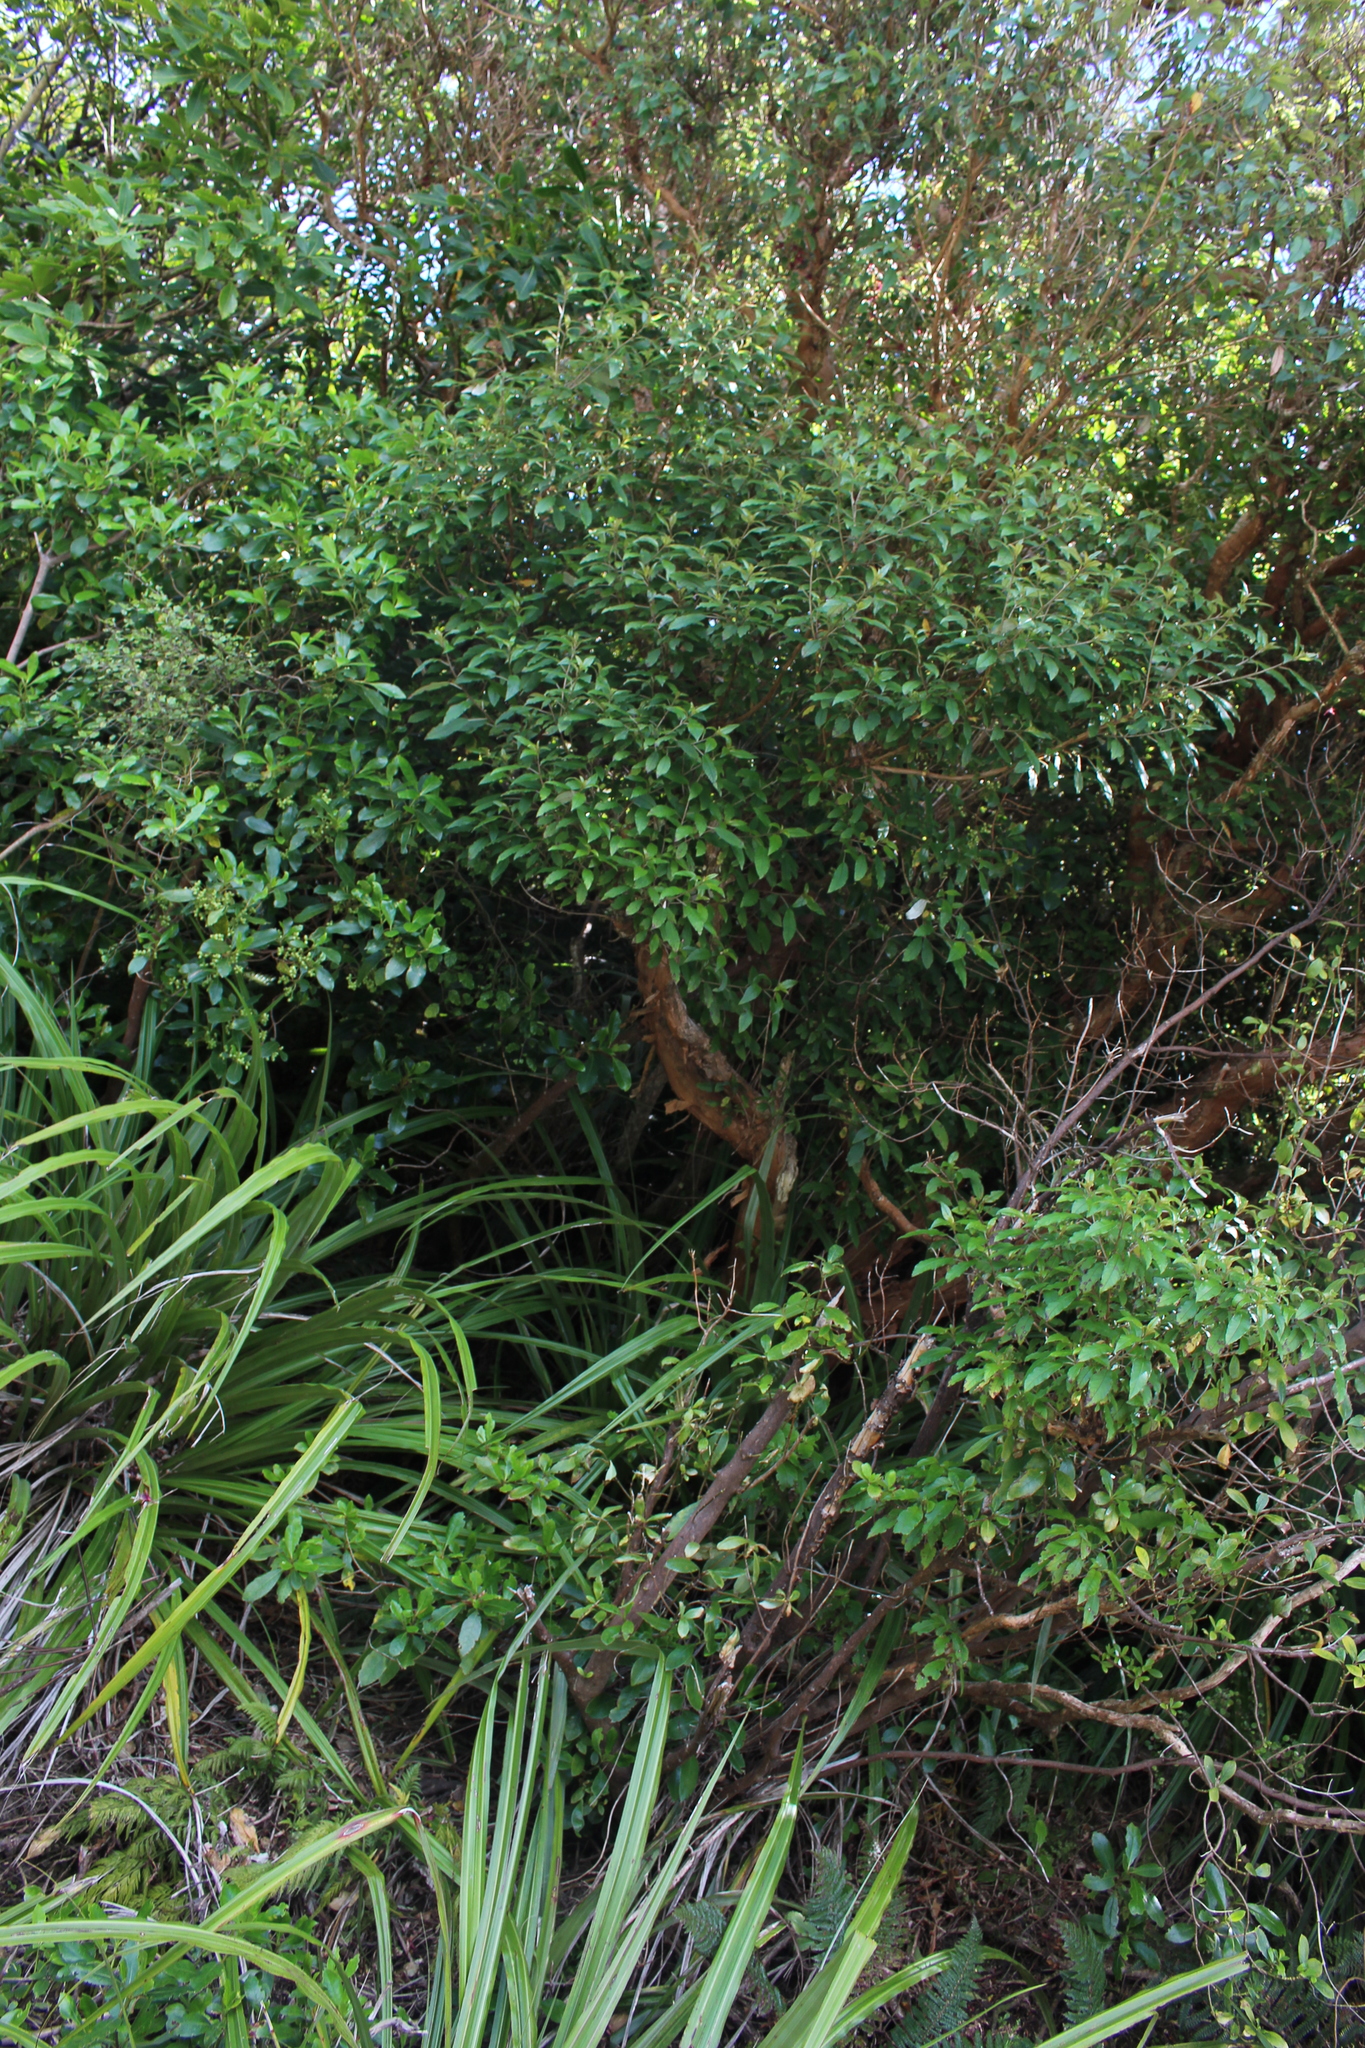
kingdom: Plantae
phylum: Tracheophyta
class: Polypodiopsida
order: Polypodiales
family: Blechnaceae
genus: Austroblechnum
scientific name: Austroblechnum colensoi
